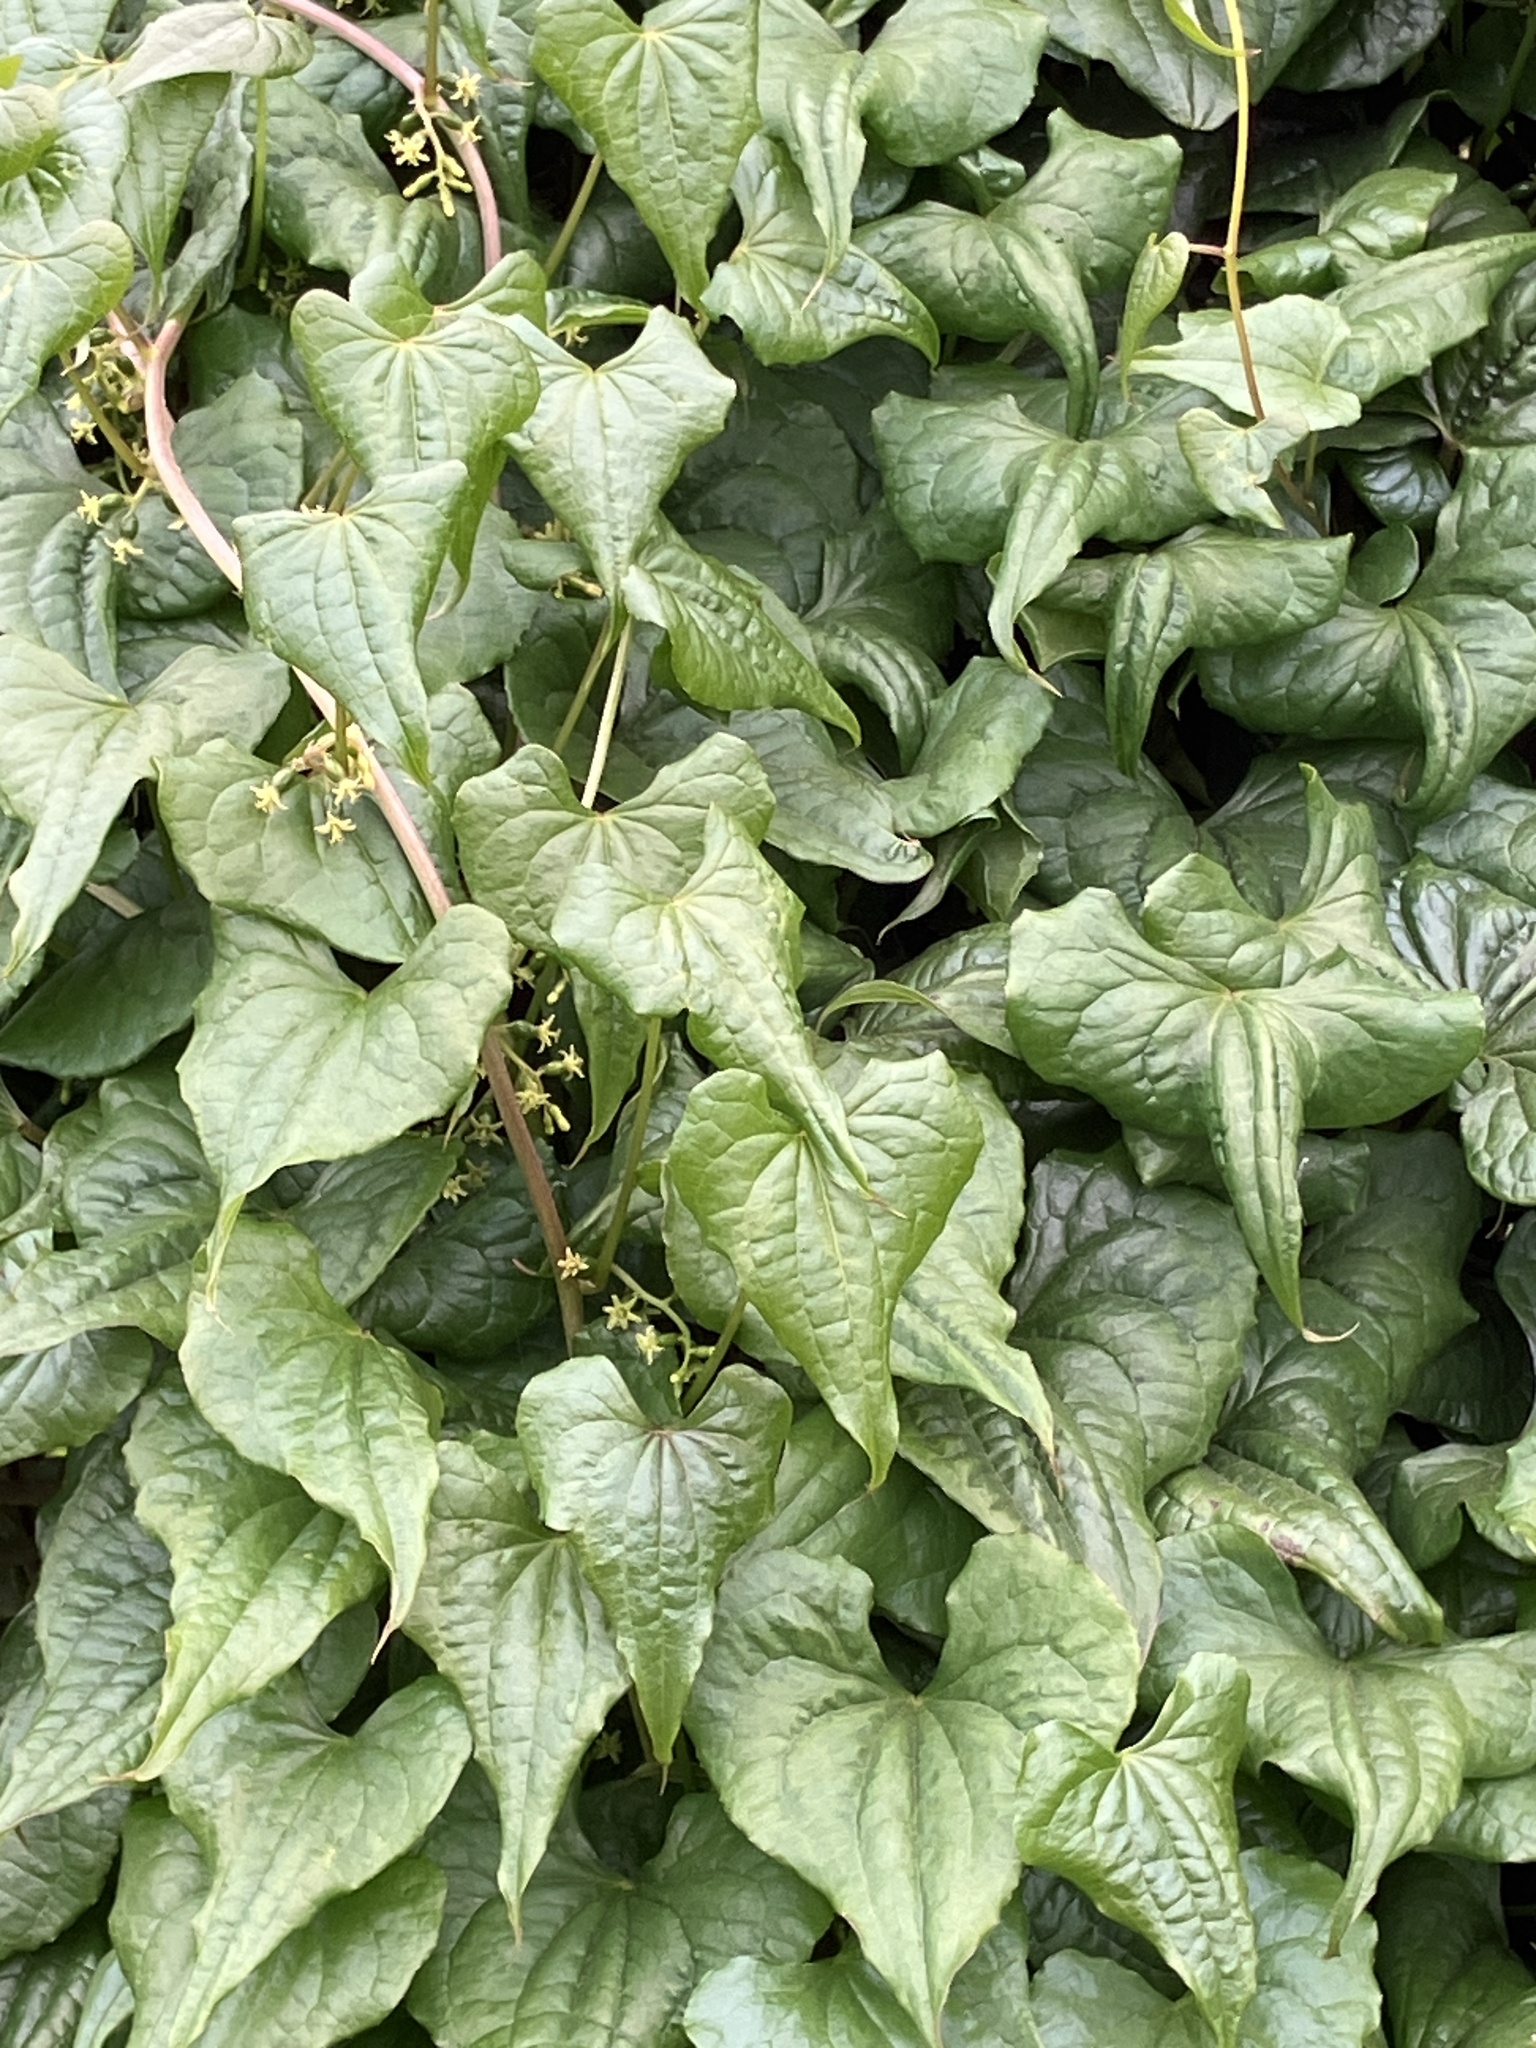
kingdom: Plantae
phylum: Tracheophyta
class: Liliopsida
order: Dioscoreales
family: Dioscoreaceae
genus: Dioscorea
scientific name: Dioscorea communis
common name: Black-bindweed
